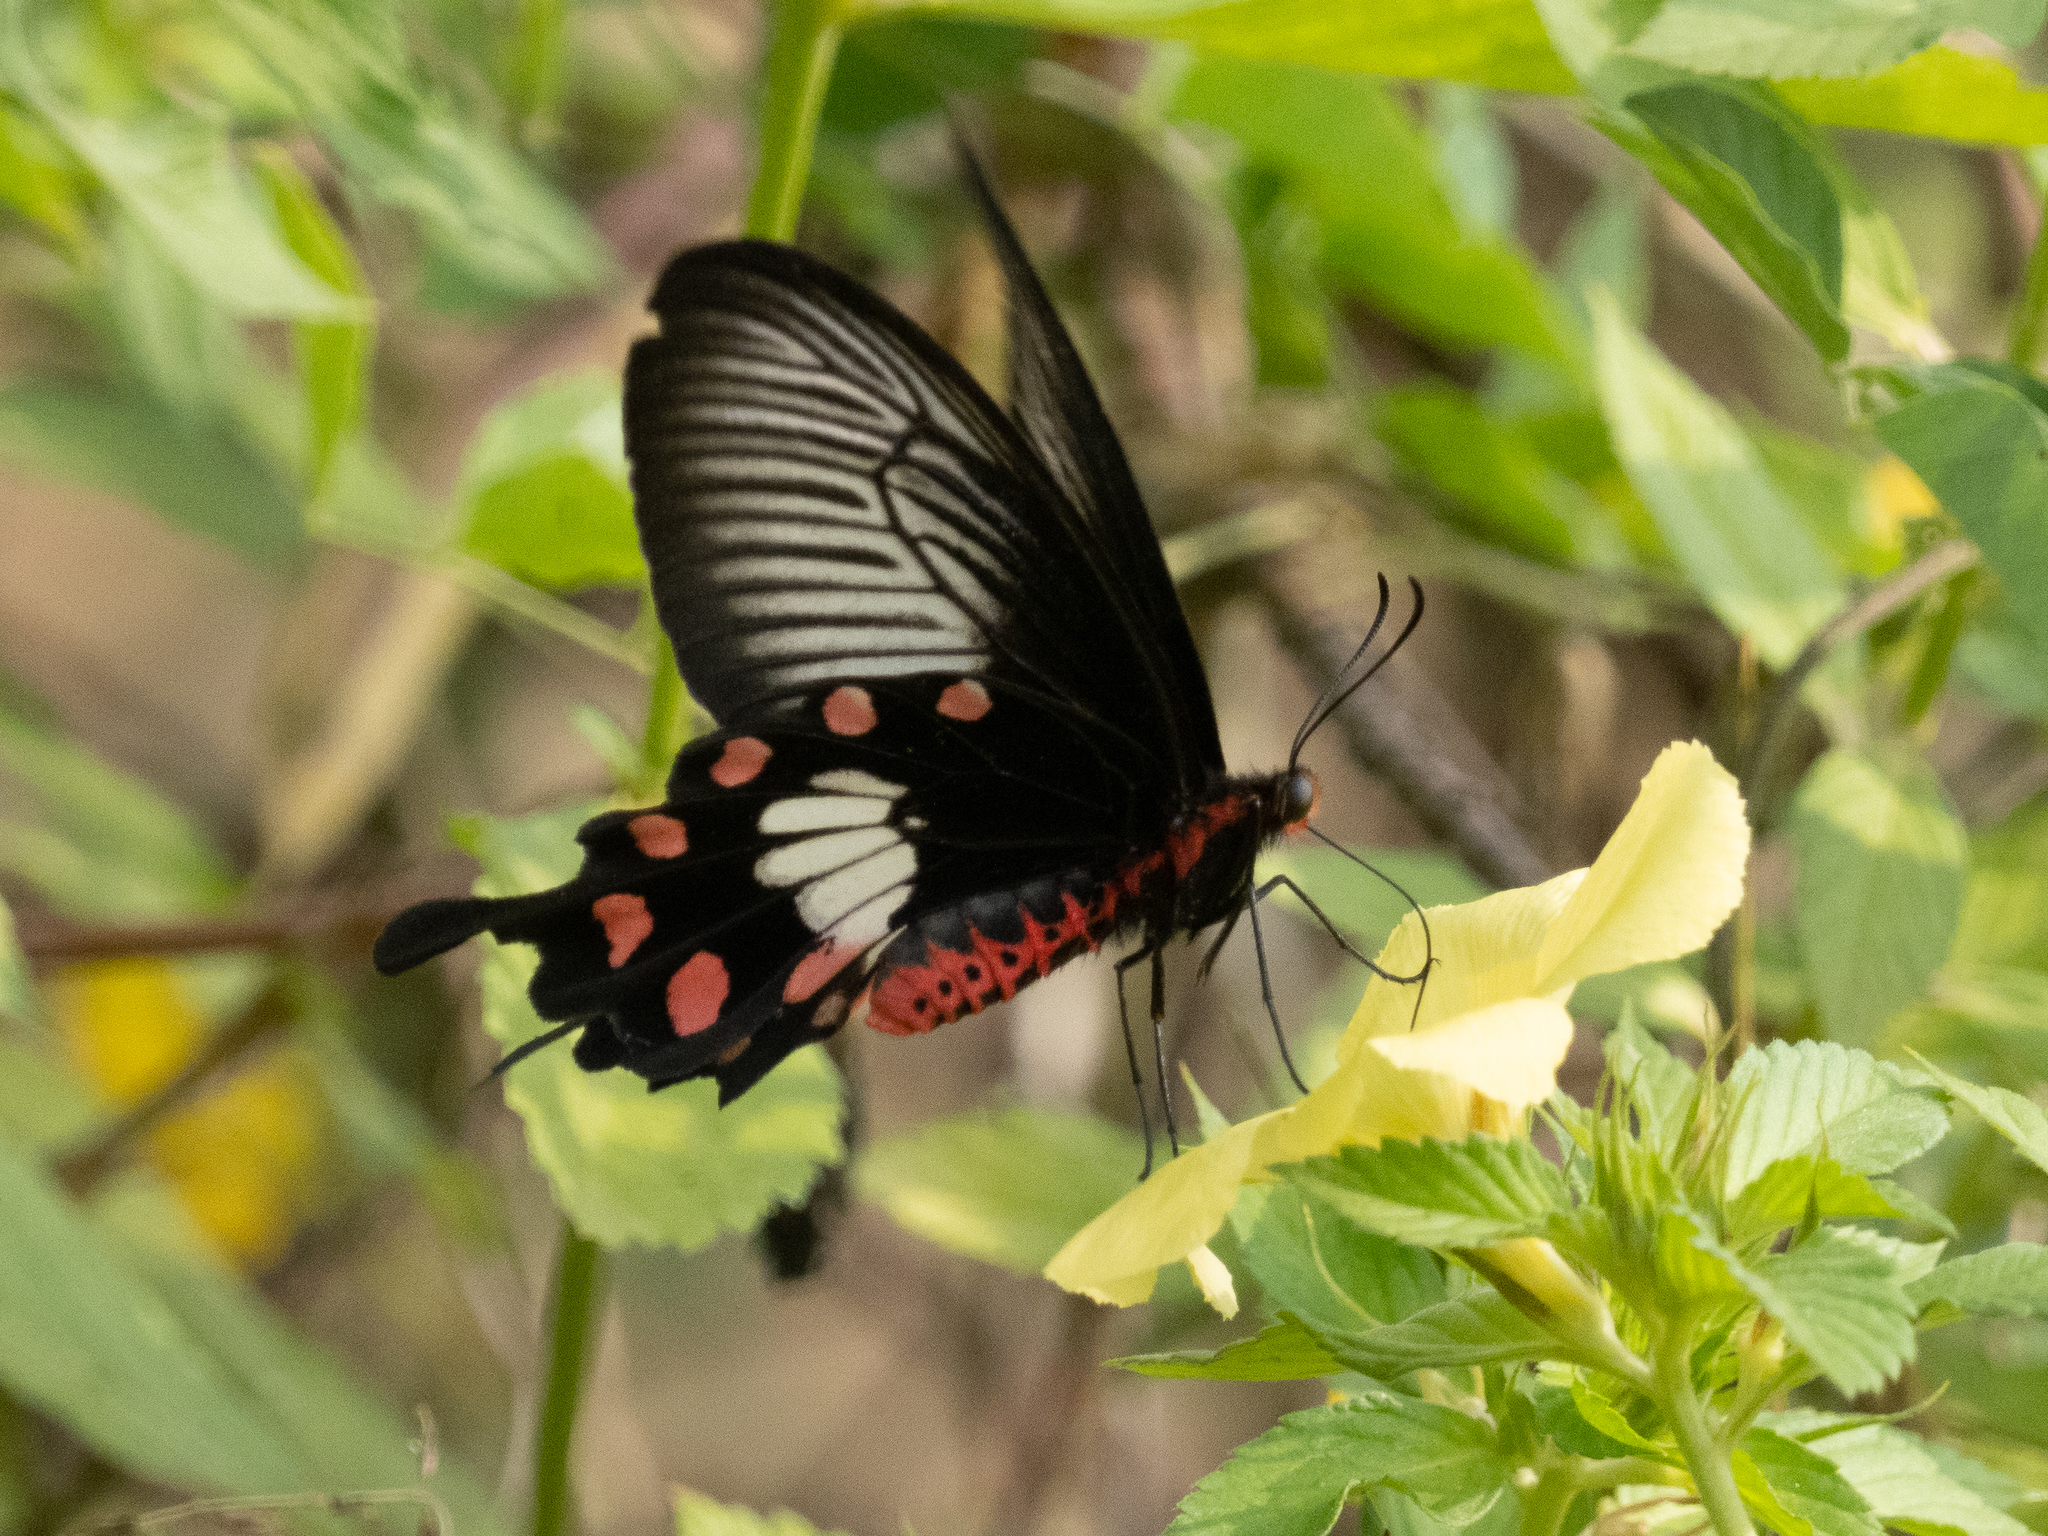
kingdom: Animalia
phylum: Arthropoda
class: Insecta
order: Lepidoptera
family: Papilionidae
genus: Pachliopta
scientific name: Pachliopta aristolochiae
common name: Common rose
